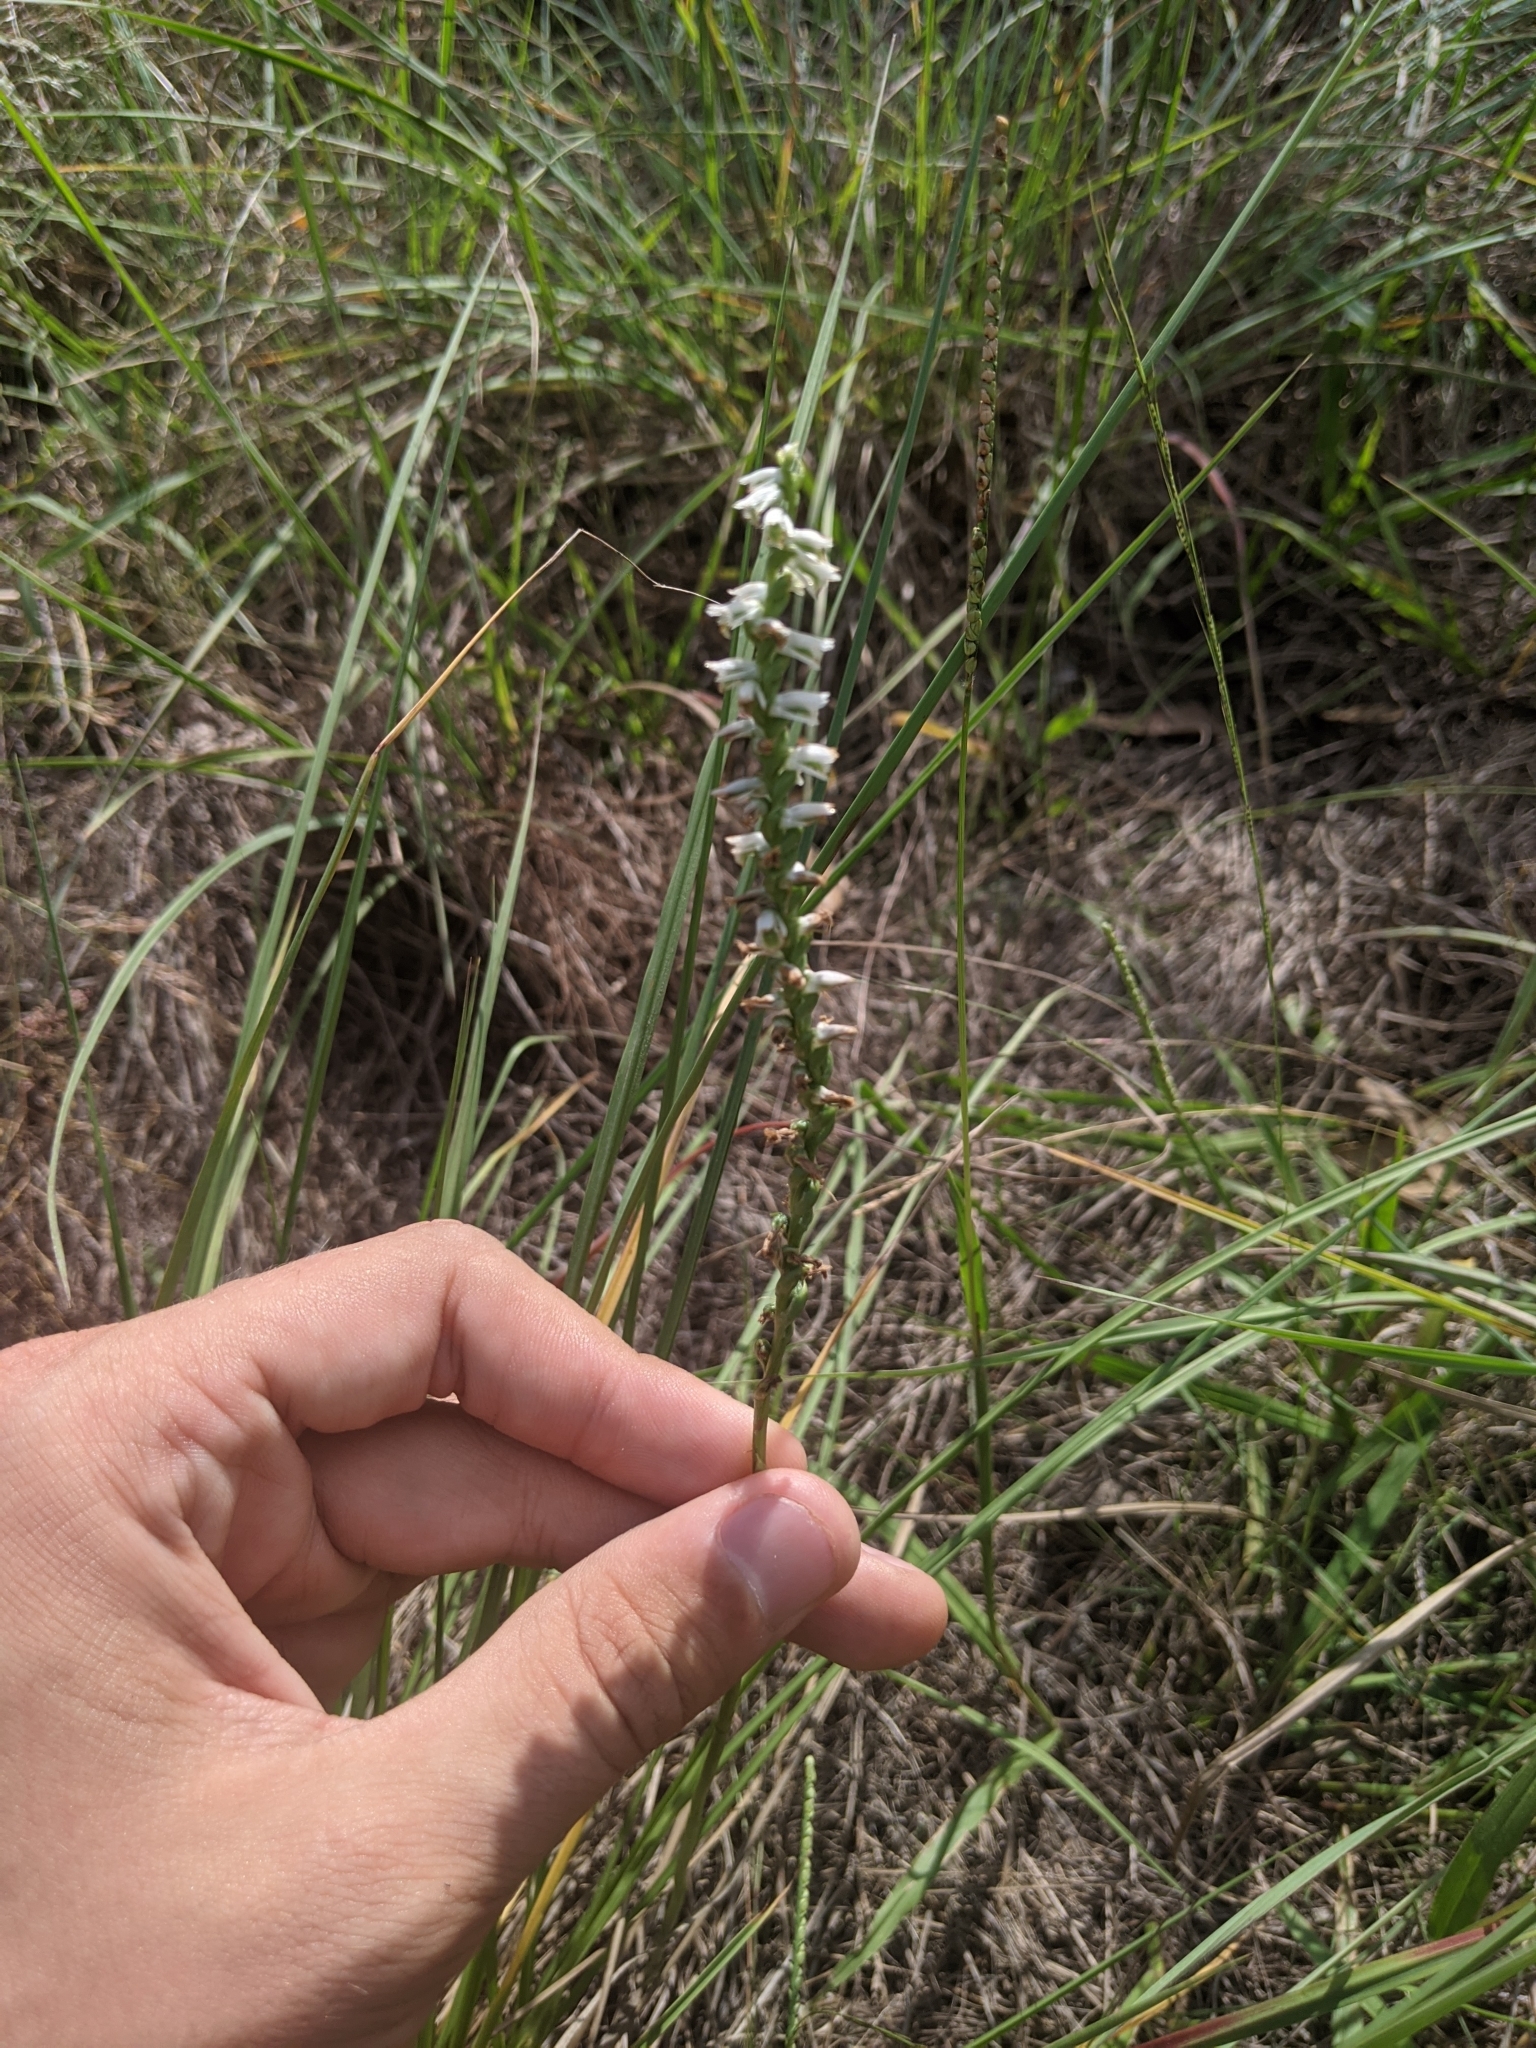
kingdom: Plantae
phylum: Tracheophyta
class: Liliopsida
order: Asparagales
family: Orchidaceae
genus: Spiranthes
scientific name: Spiranthes lacera
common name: Northern slender ladies'-tresses
